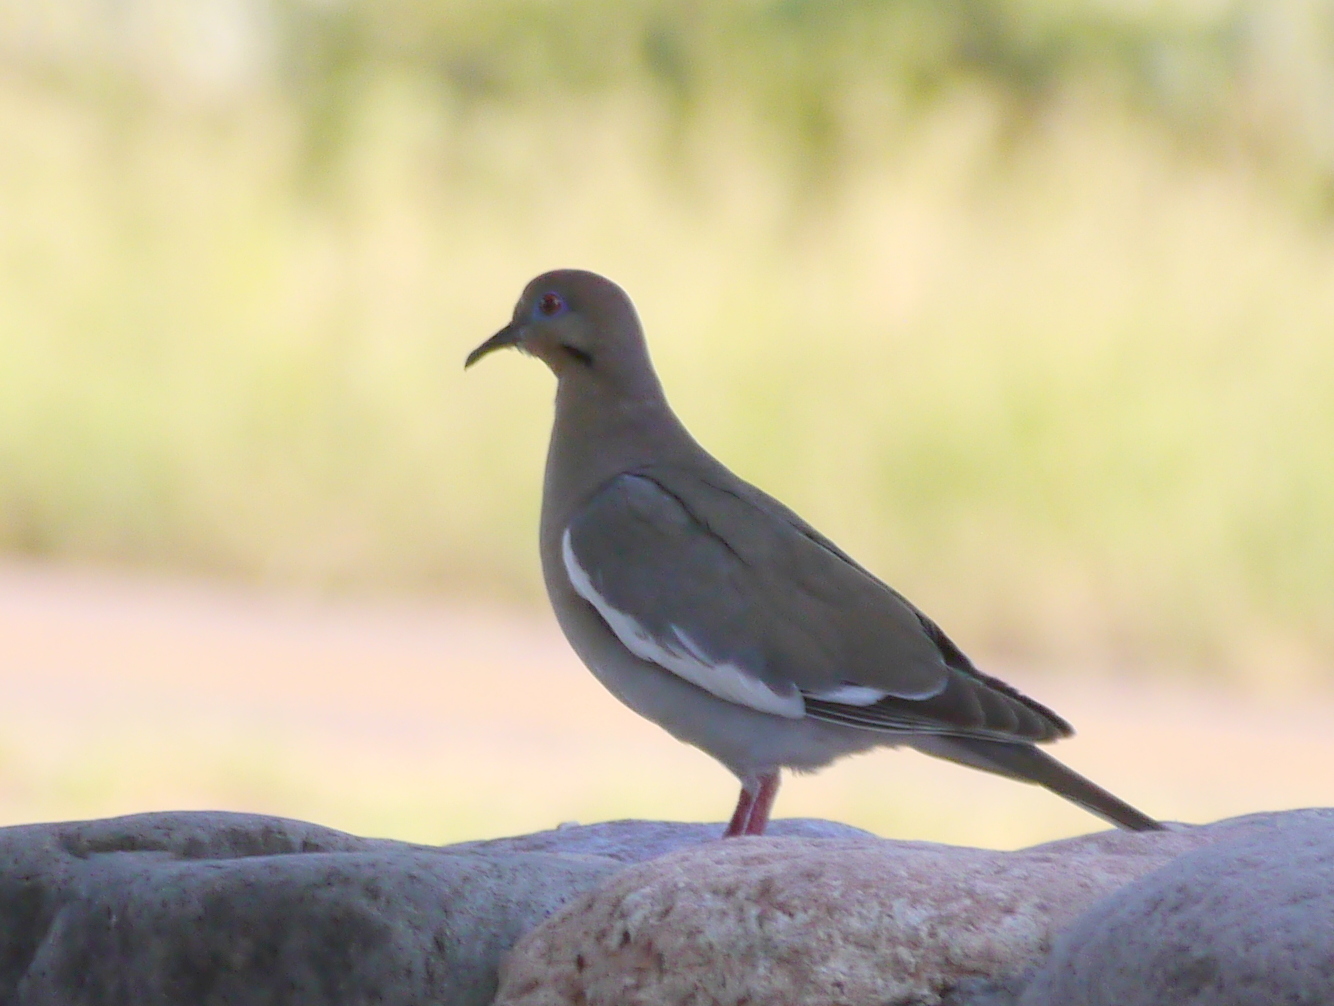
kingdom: Animalia
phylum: Chordata
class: Aves
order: Columbiformes
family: Columbidae
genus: Zenaida
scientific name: Zenaida asiatica
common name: White-winged dove
